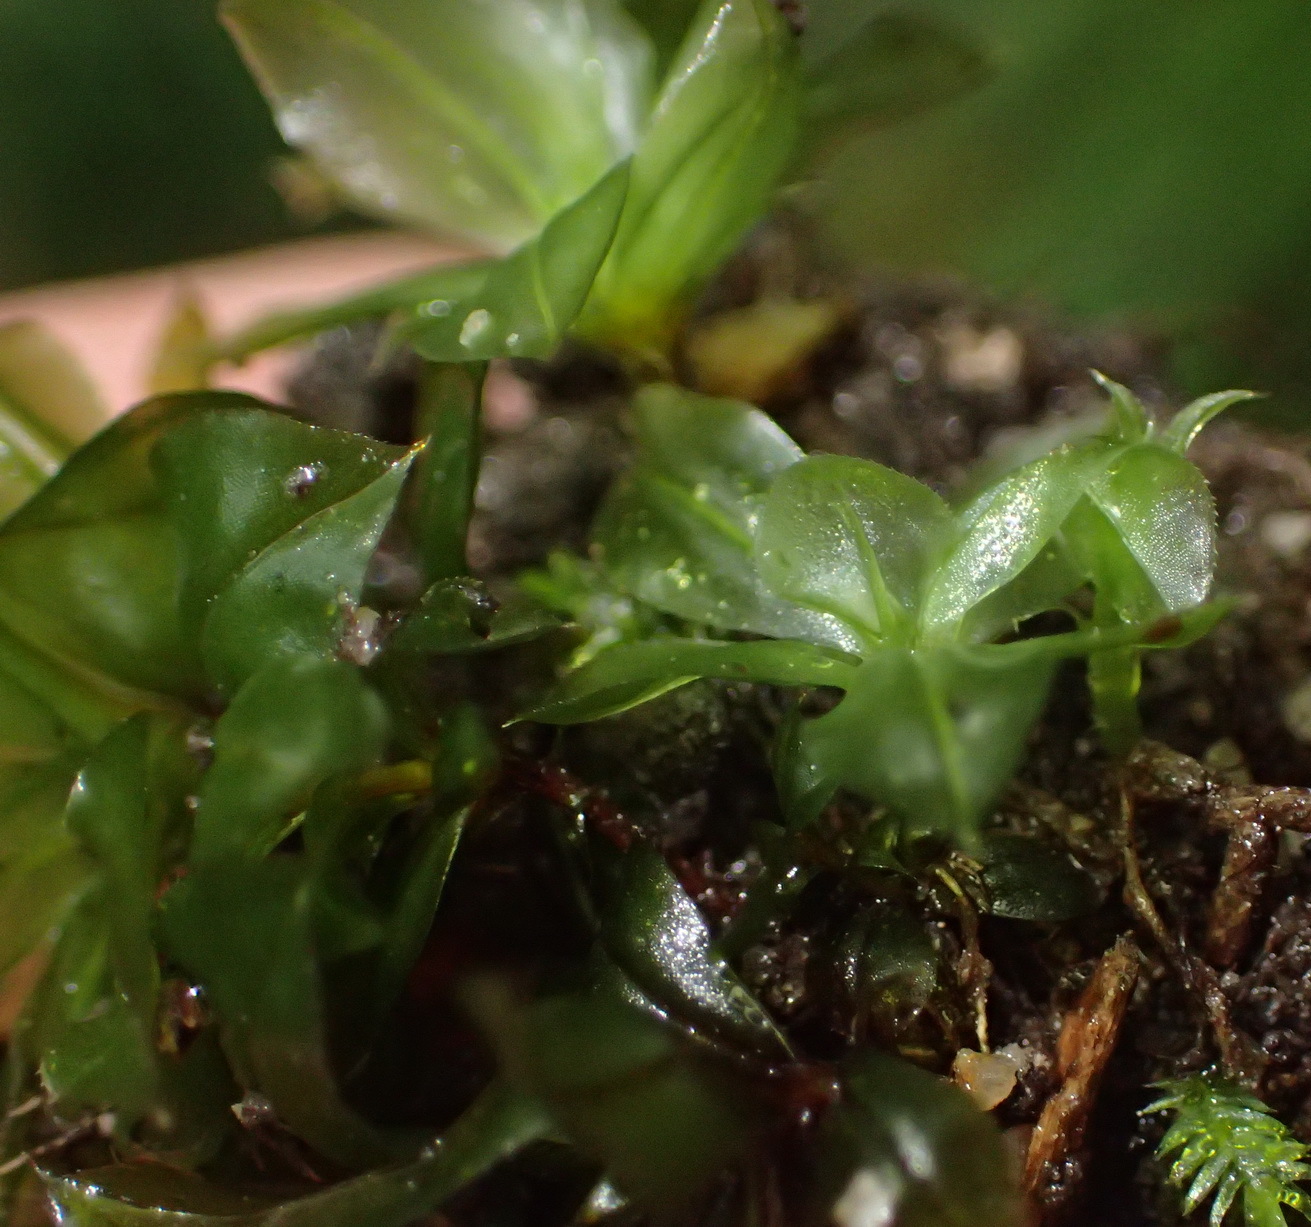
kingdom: Plantae
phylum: Bryophyta
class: Bryopsida
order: Bryales
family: Bryaceae
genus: Rhodobryum
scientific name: Rhodobryum commersonii
